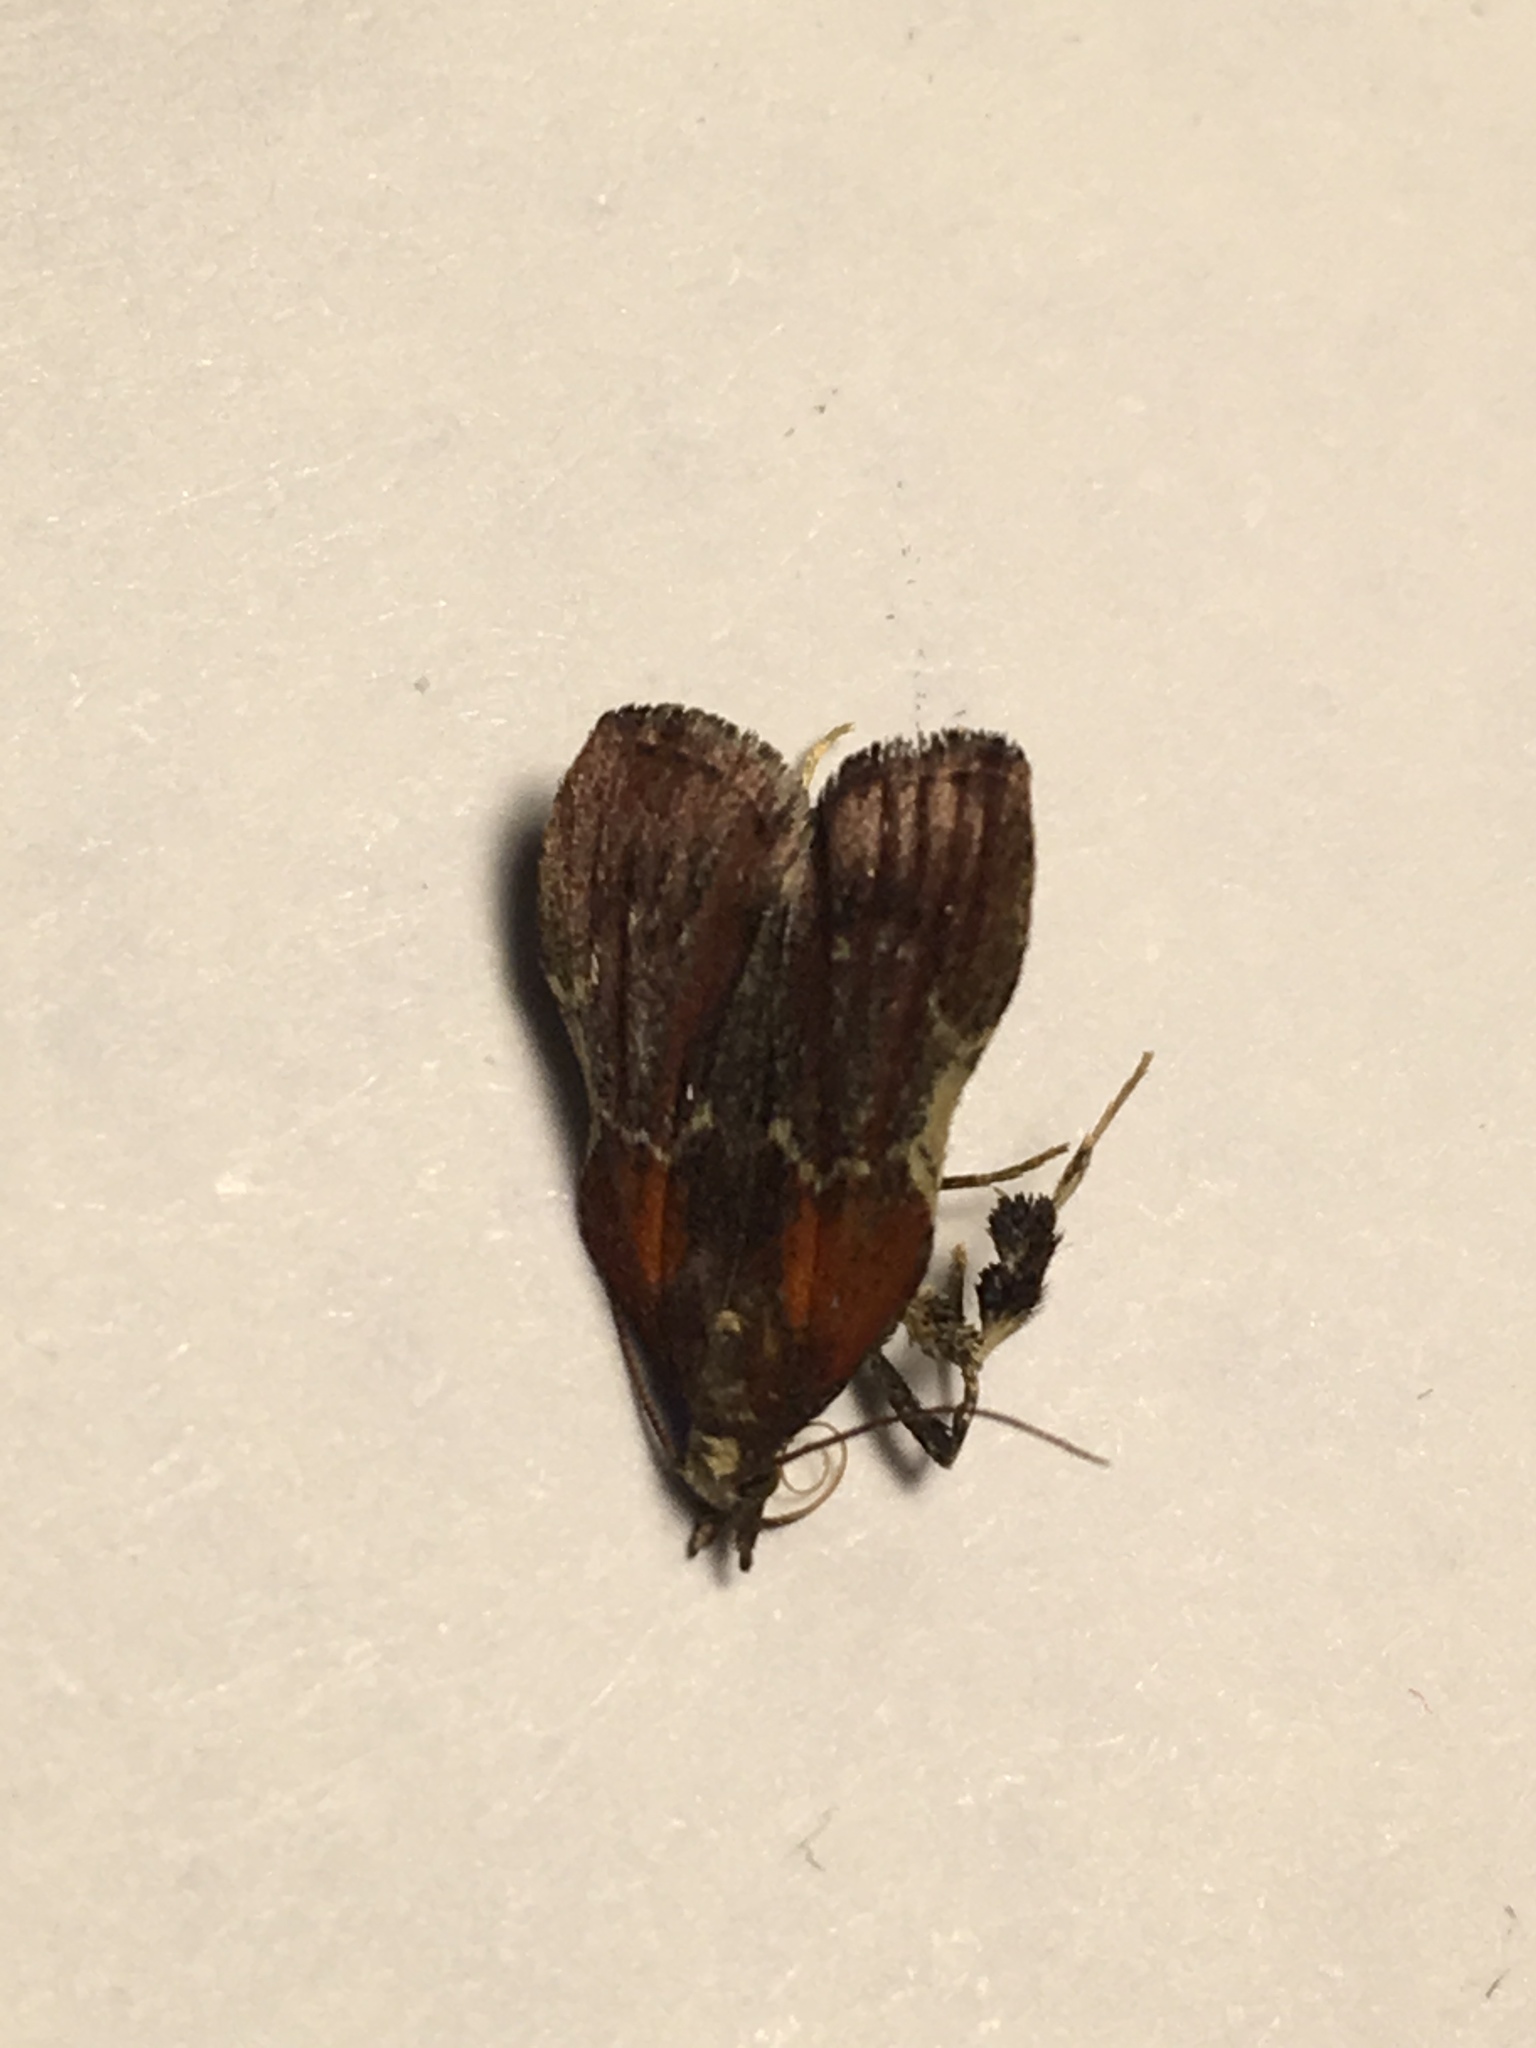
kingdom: Animalia
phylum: Arthropoda
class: Insecta
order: Lepidoptera
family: Pyralidae
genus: Galasa
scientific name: Galasa nigrinodis
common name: Boxwood leaftier moth
